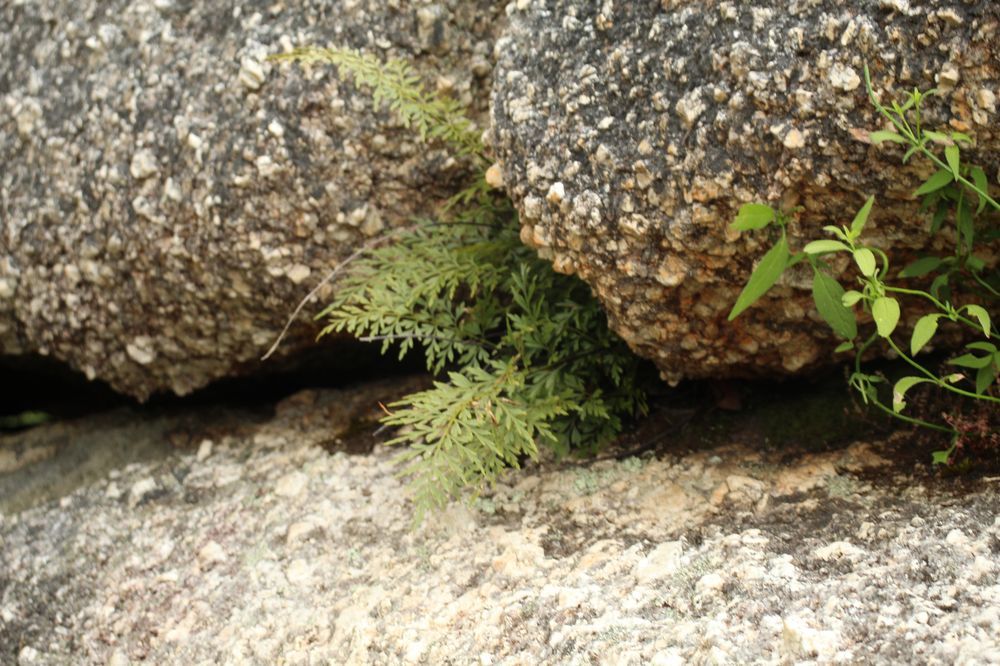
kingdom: Plantae
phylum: Tracheophyta
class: Polypodiopsida
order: Polypodiales
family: Aspleniaceae
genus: Asplenium
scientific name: Asplenium aethiopicum
